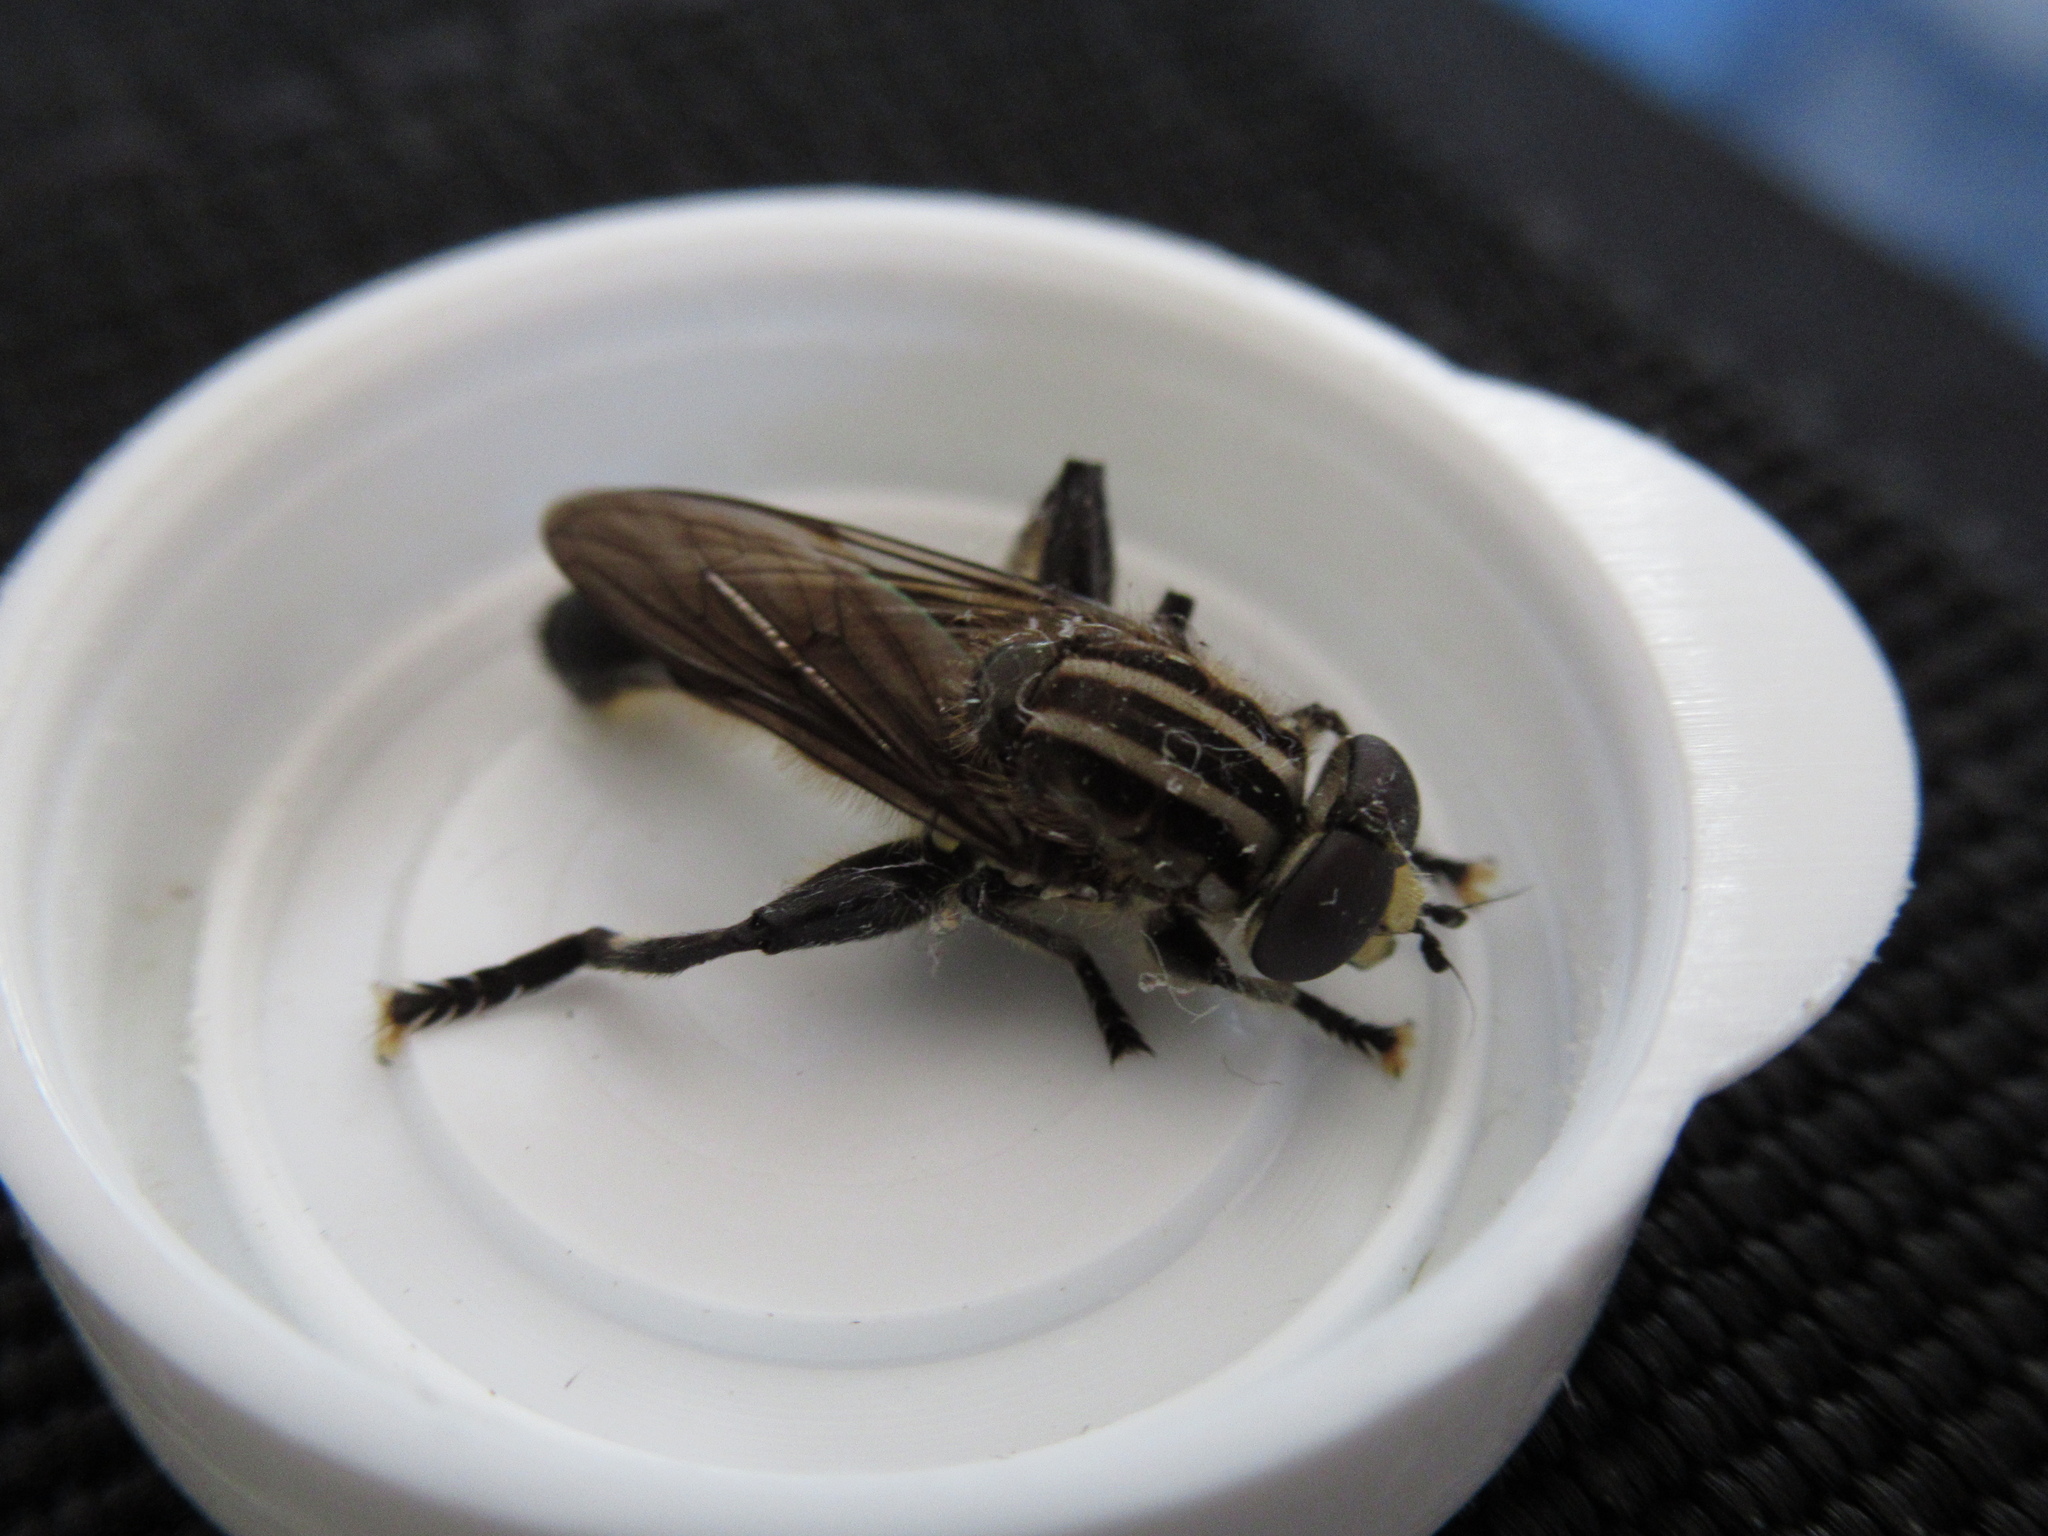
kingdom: Animalia
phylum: Arthropoda
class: Insecta
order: Diptera
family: Syrphidae
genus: Orthoprosopa
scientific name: Orthoprosopa bilineata
